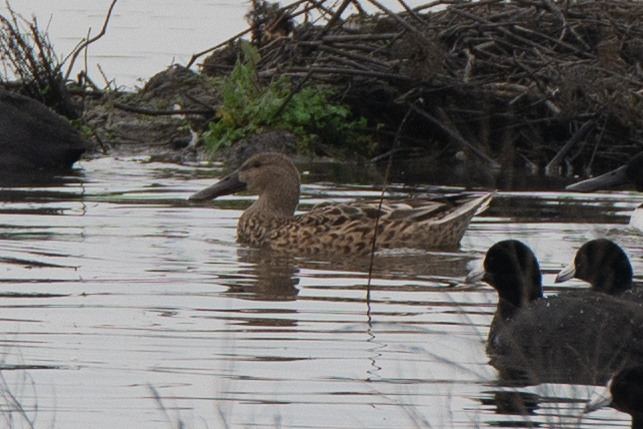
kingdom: Animalia
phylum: Chordata
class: Aves
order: Anseriformes
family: Anatidae
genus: Spatula
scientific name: Spatula clypeata
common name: Northern shoveler
